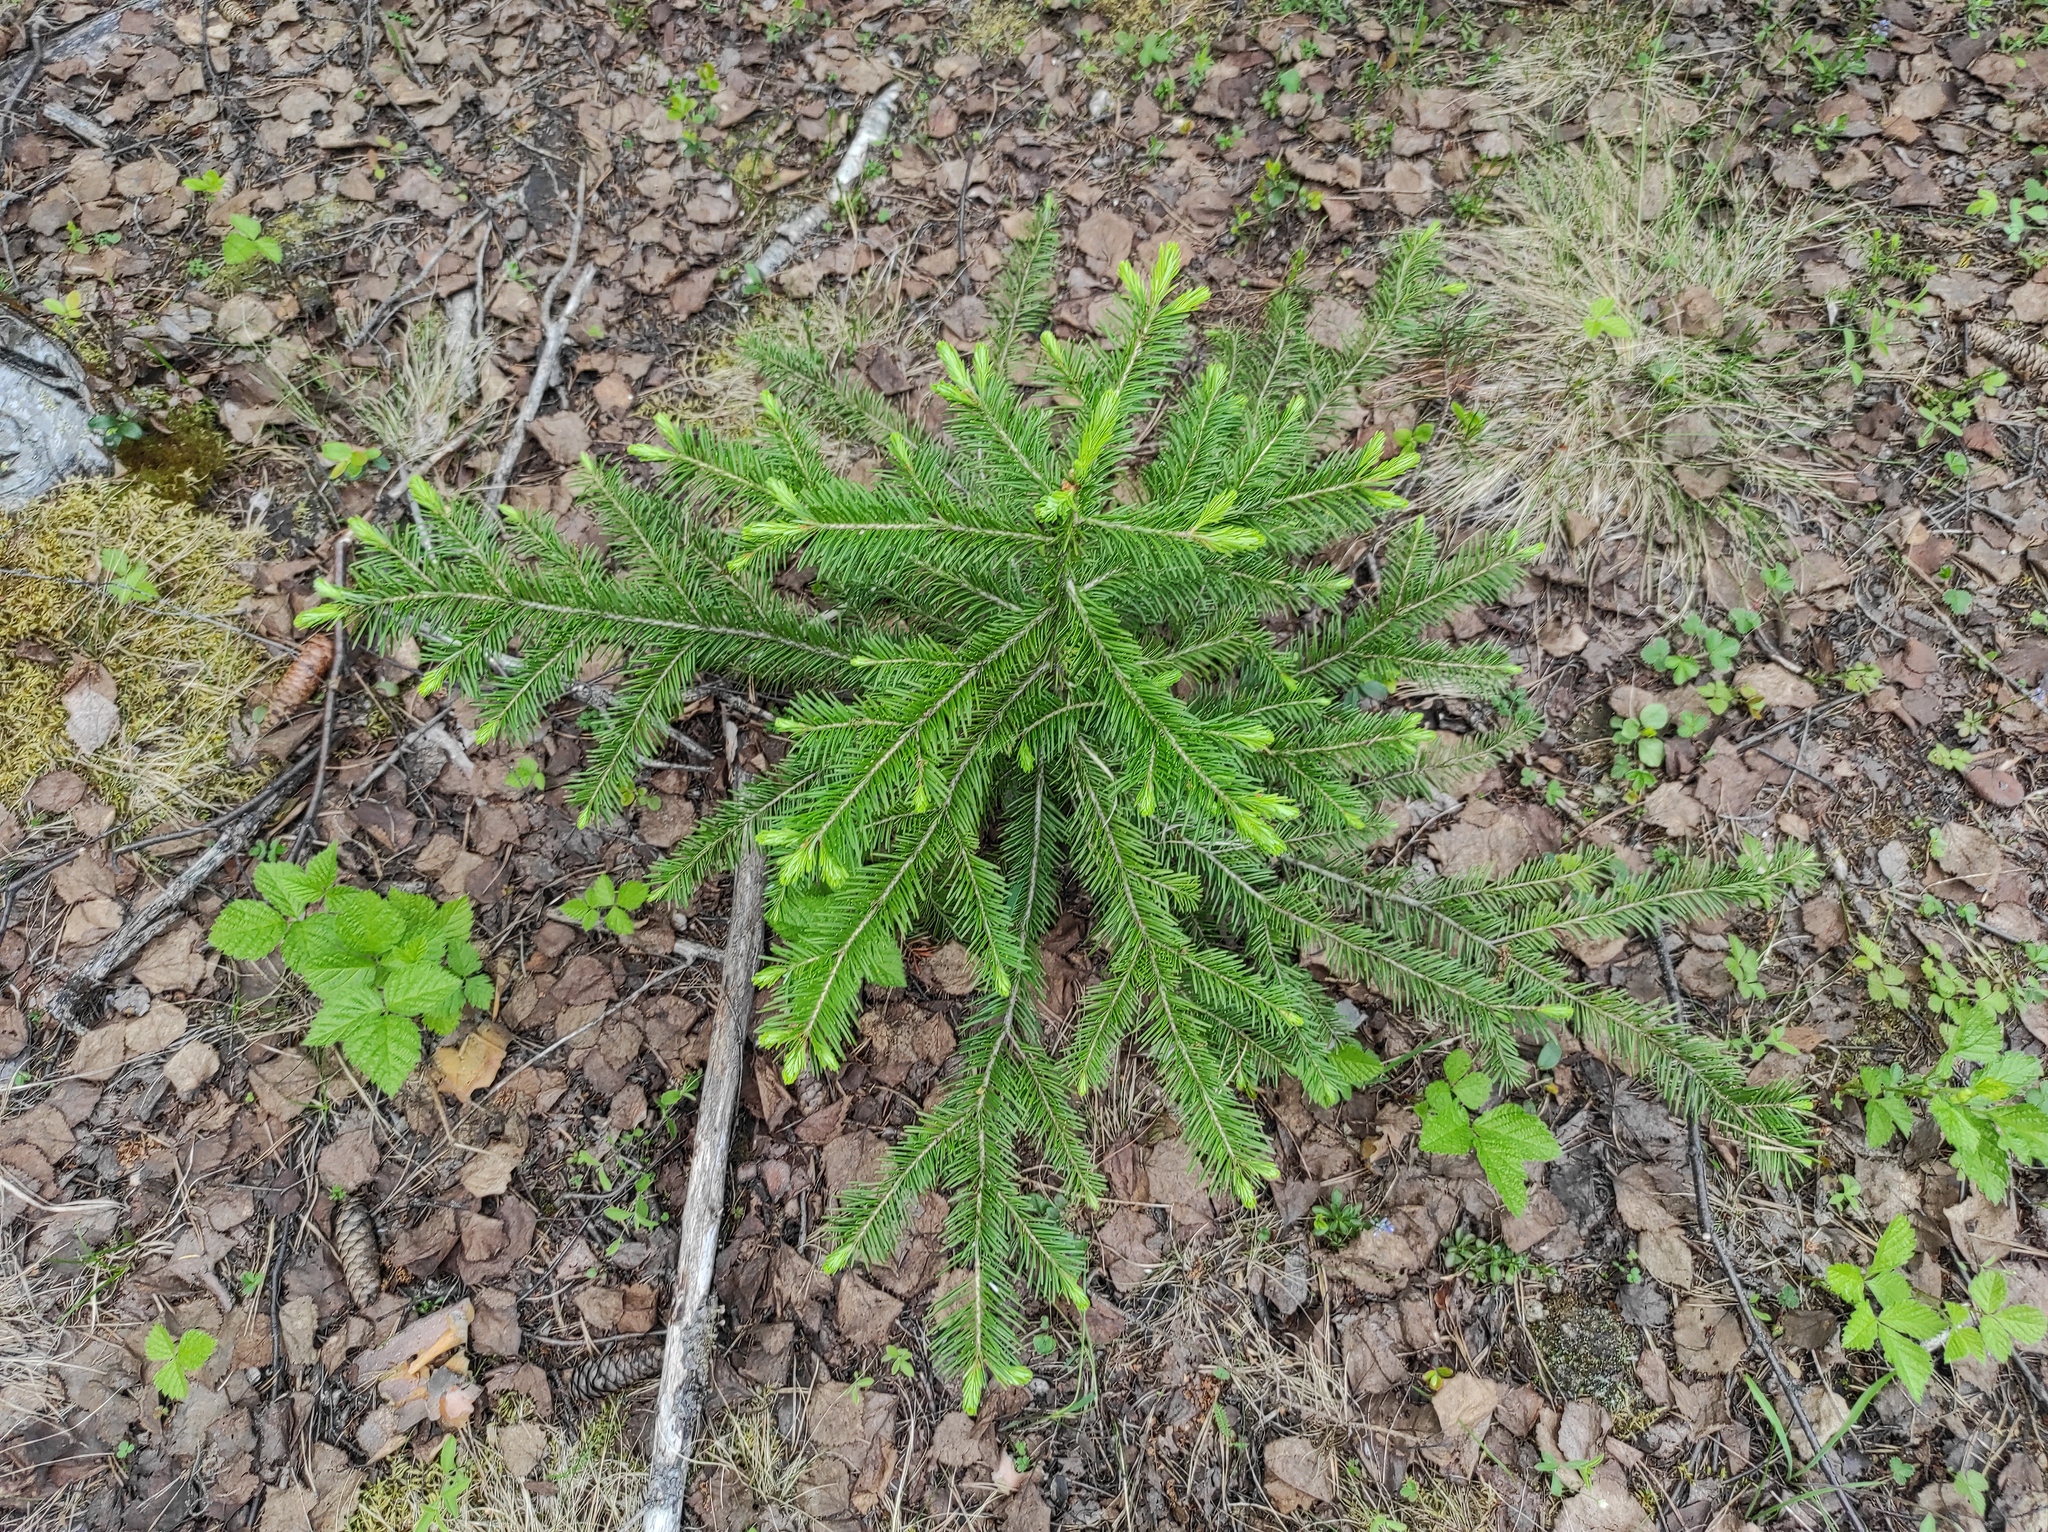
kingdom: Plantae
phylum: Tracheophyta
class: Pinopsida
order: Pinales
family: Pinaceae
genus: Abies
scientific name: Abies sibirica
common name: Siberian fir
